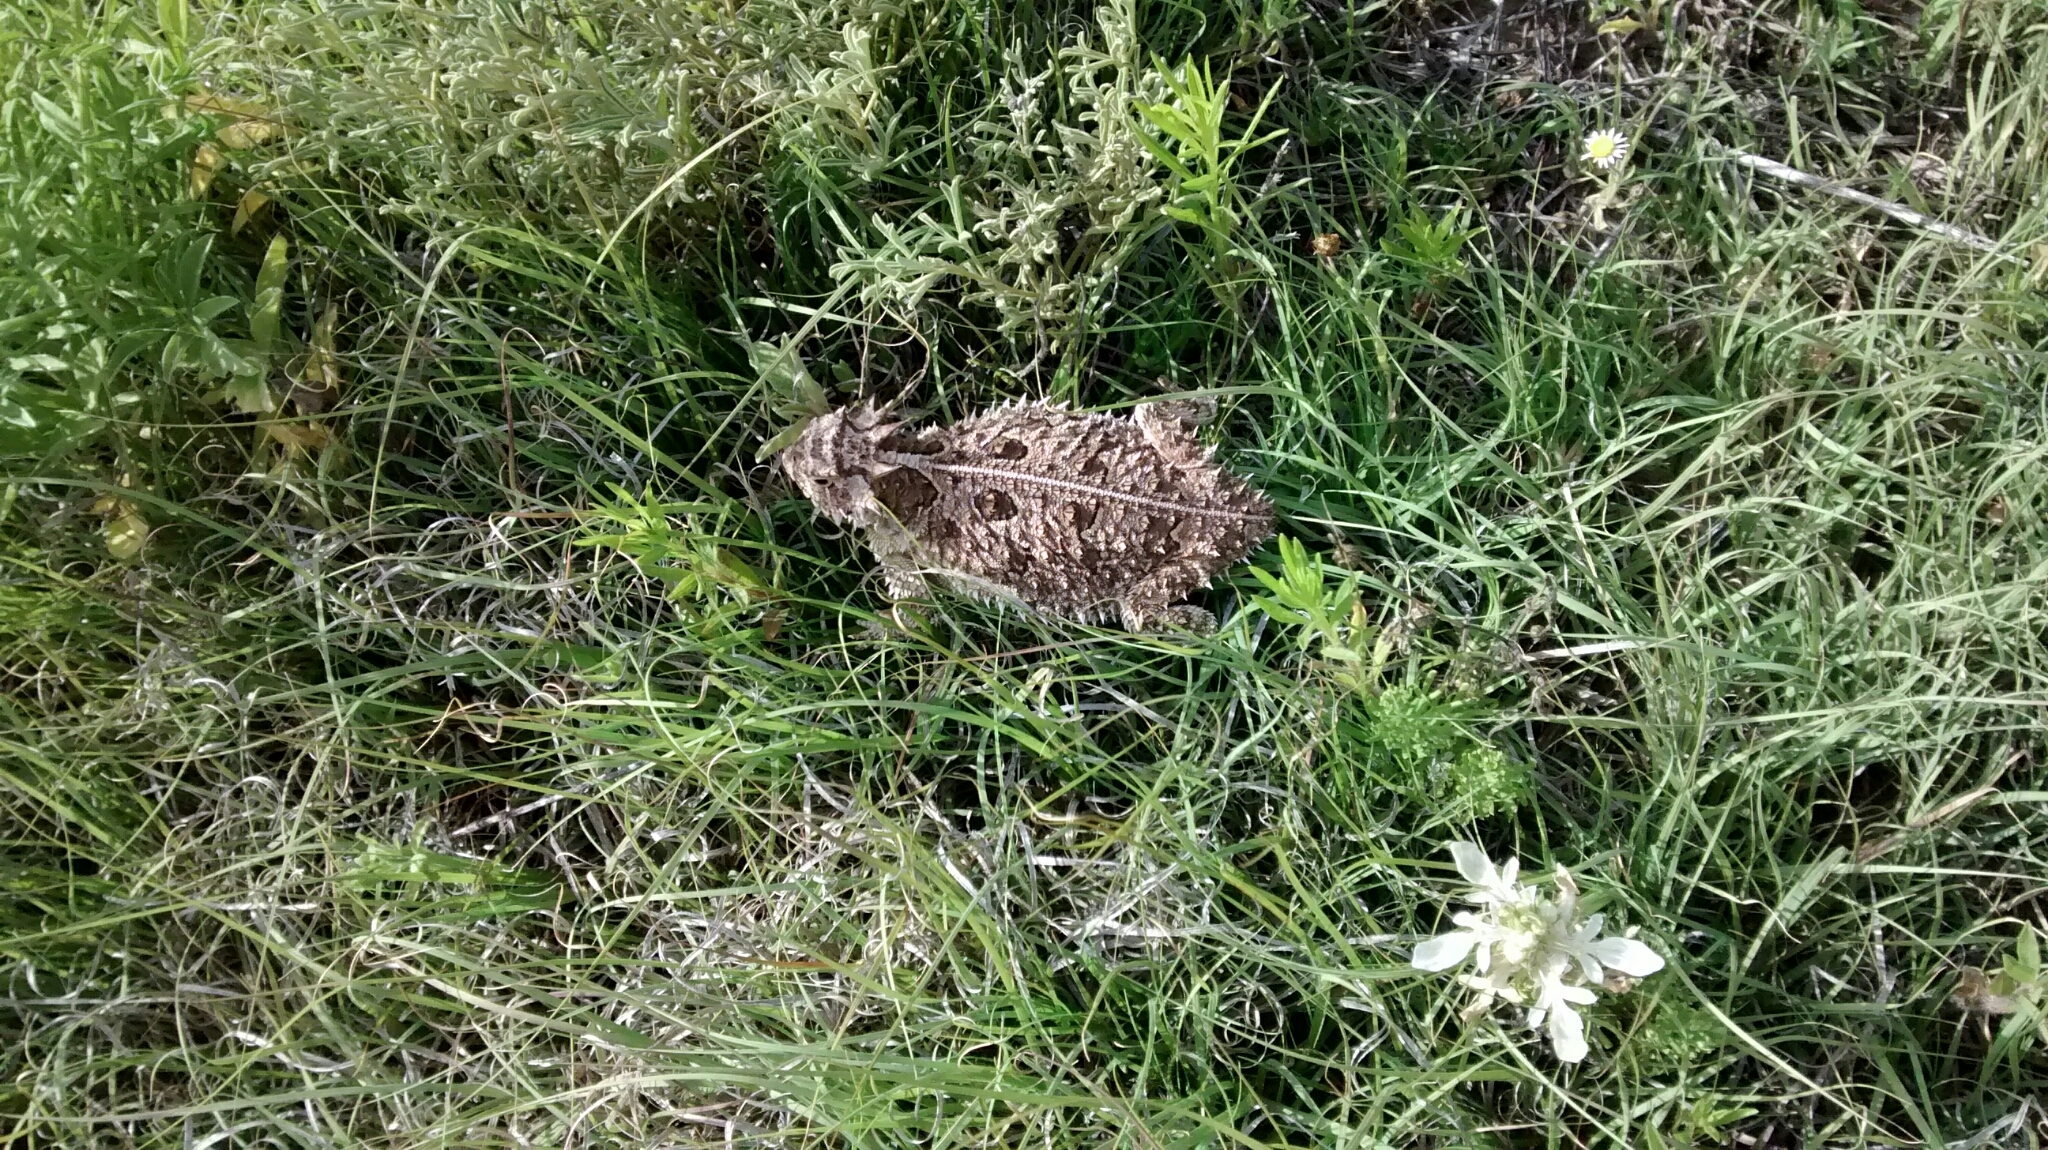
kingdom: Animalia
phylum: Chordata
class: Squamata
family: Phrynosomatidae
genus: Phrynosoma
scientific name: Phrynosoma cornutum
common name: Texas horned lizard
